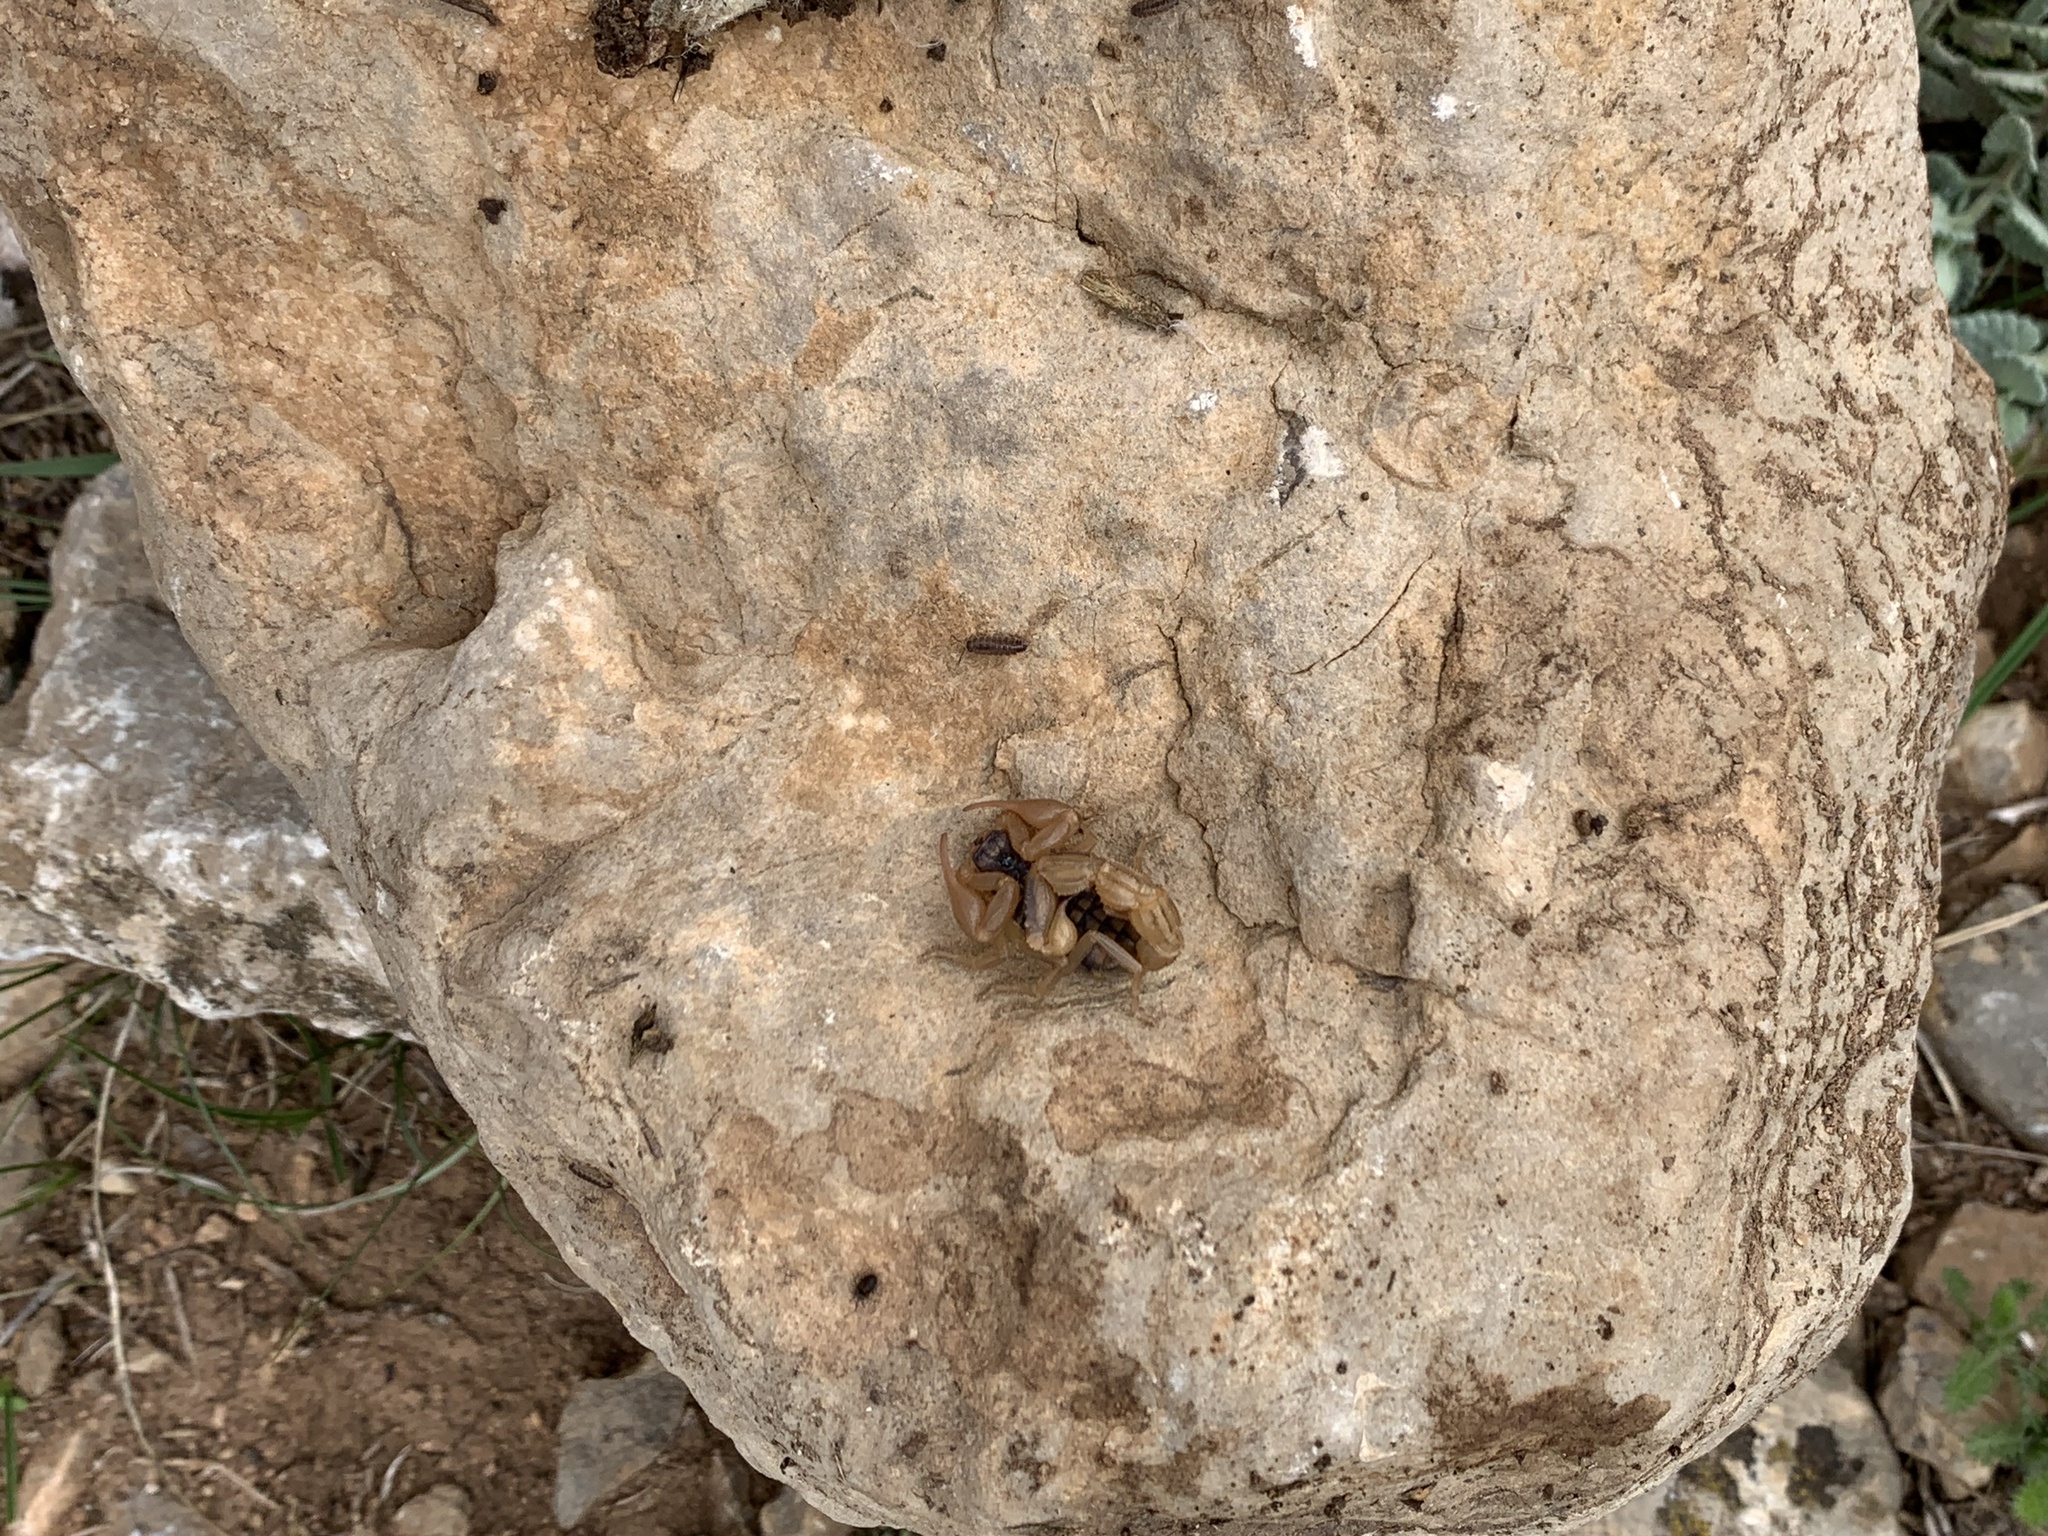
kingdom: Animalia
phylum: Arthropoda
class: Arachnida
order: Scorpiones
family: Buthidae
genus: Mesobuthus
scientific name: Mesobuthus philippovitschi
